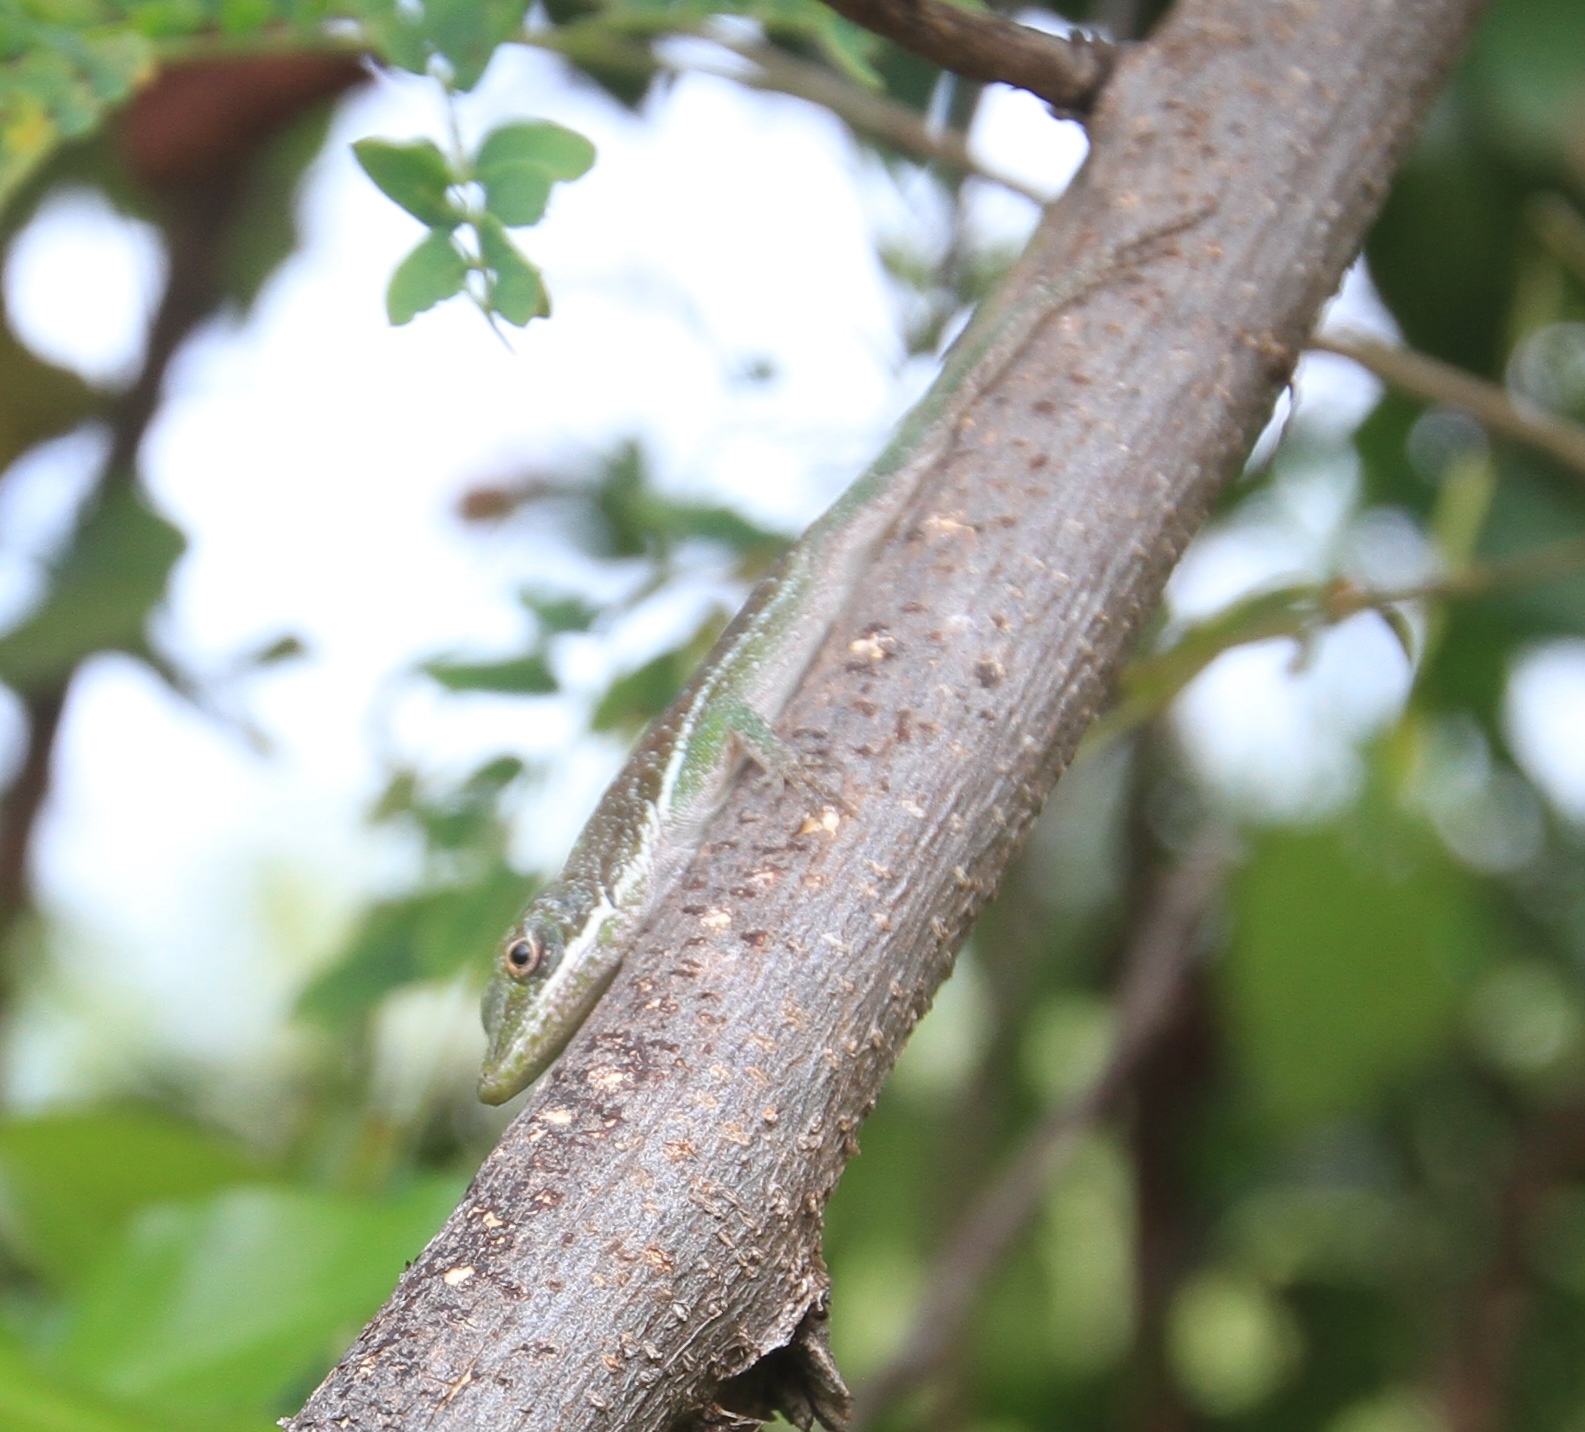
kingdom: Animalia
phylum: Chordata
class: Squamata
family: Dactyloidae
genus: Anolis
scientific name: Anolis chlorocyanus
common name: Hispaniolan green anole
